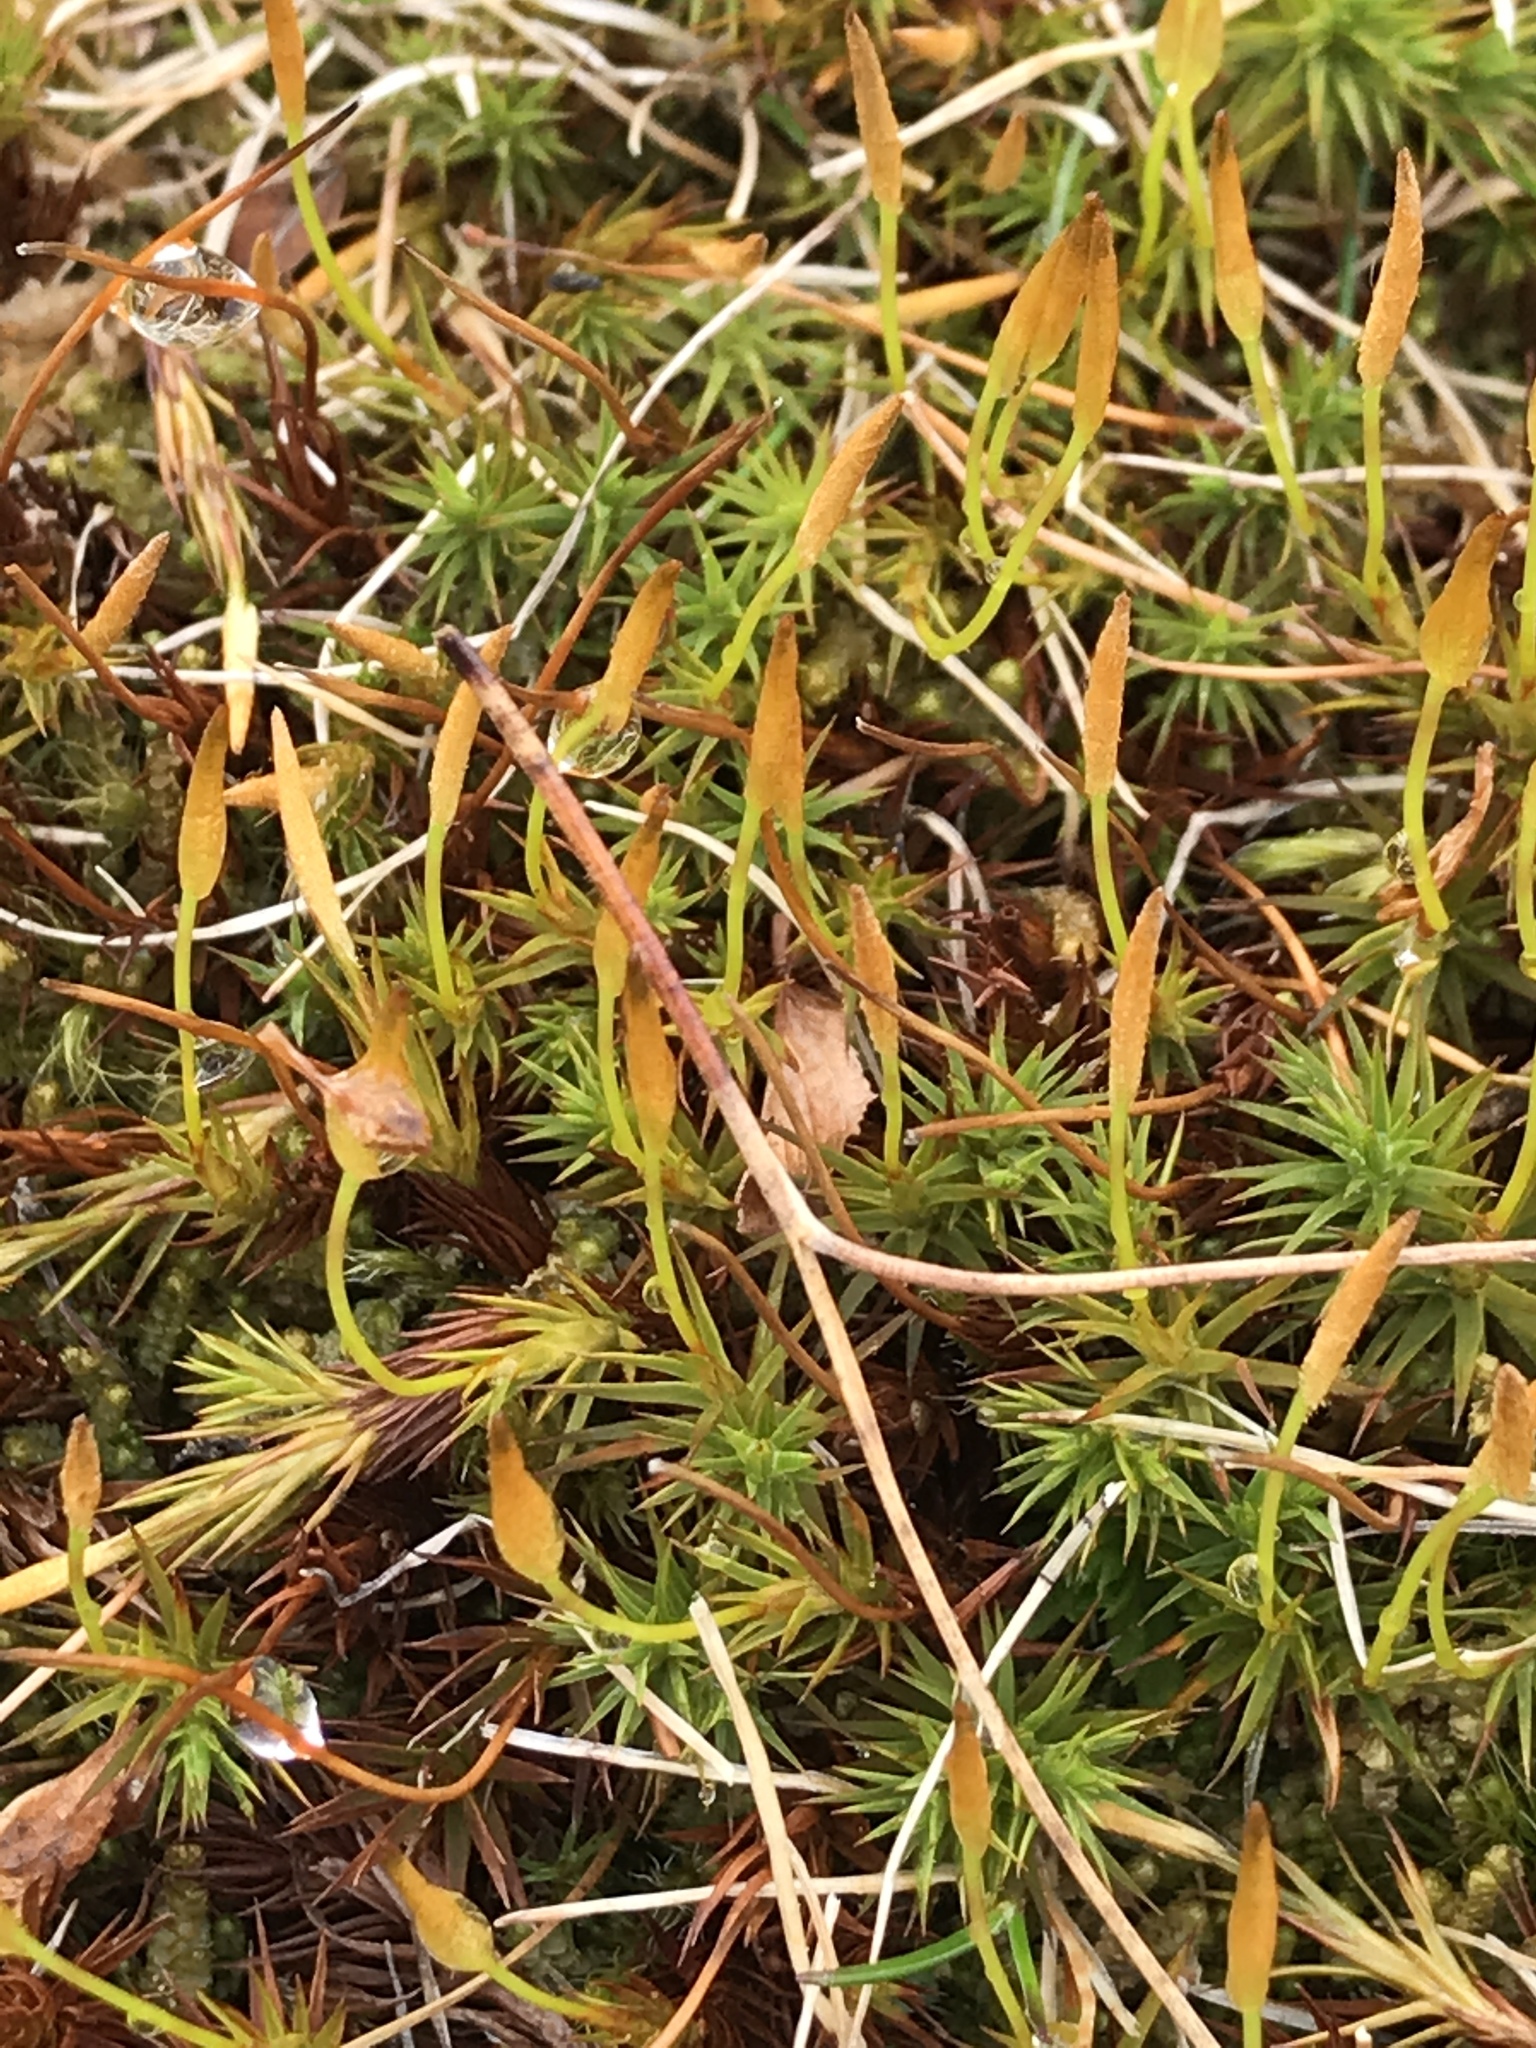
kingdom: Plantae
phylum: Bryophyta
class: Polytrichopsida
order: Polytrichales
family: Polytrichaceae
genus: Polytrichum
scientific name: Polytrichum juniperinum
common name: Juniper haircap moss
